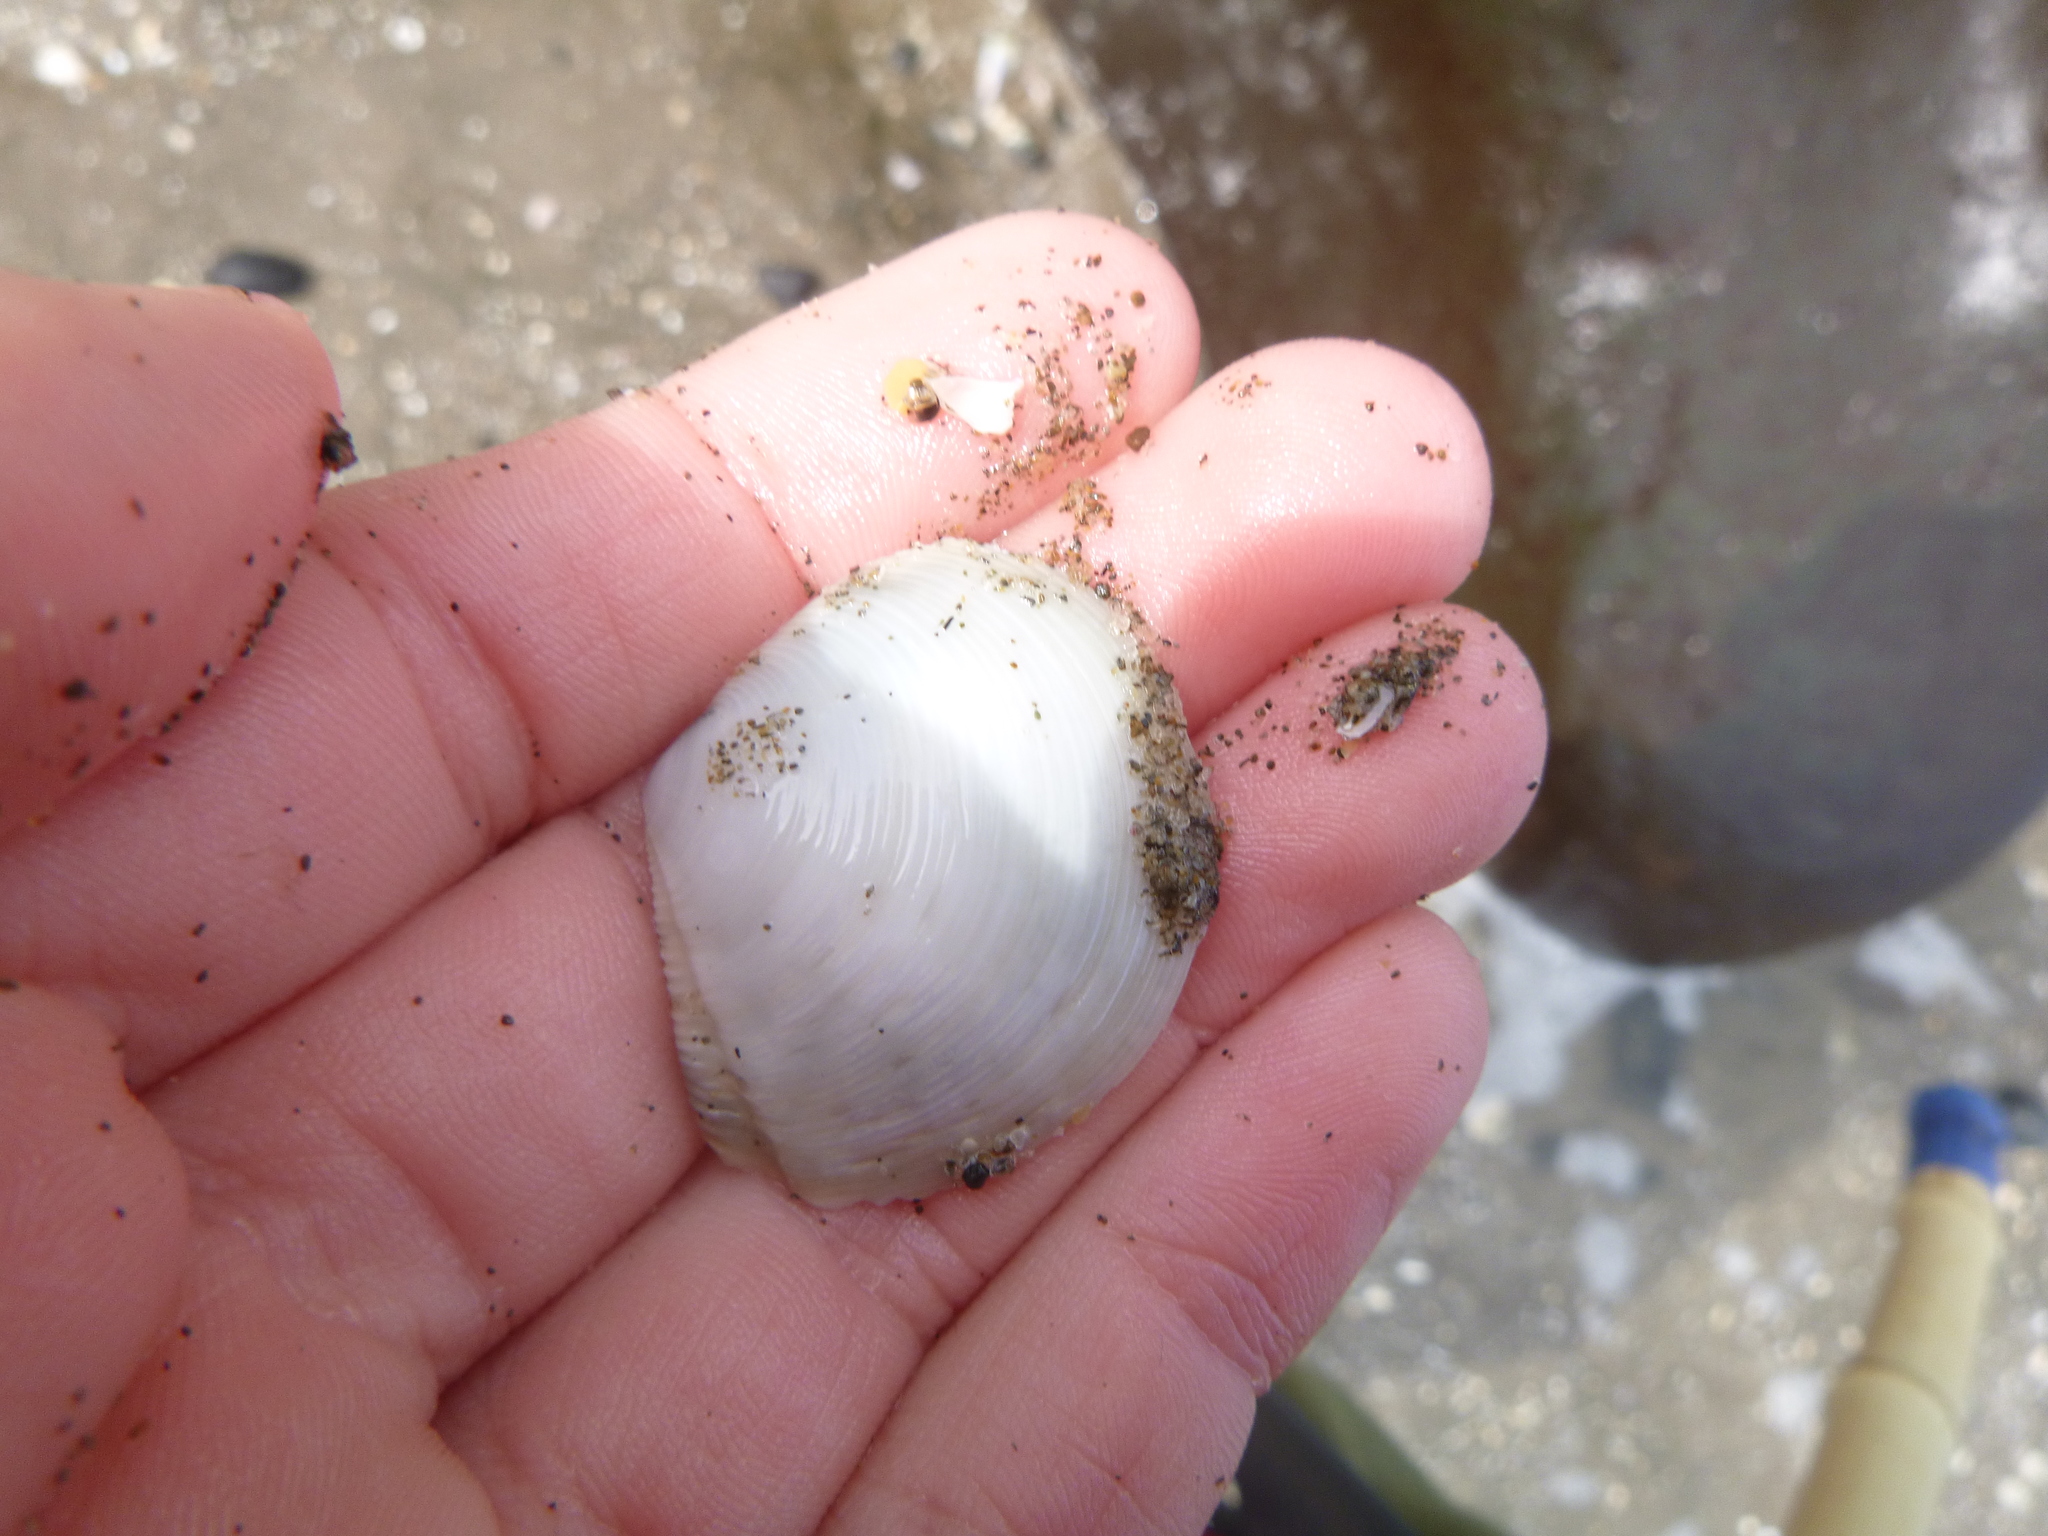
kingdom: Animalia
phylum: Mollusca
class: Bivalvia
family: Myochamidae
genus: Myadora
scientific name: Myadora striata
